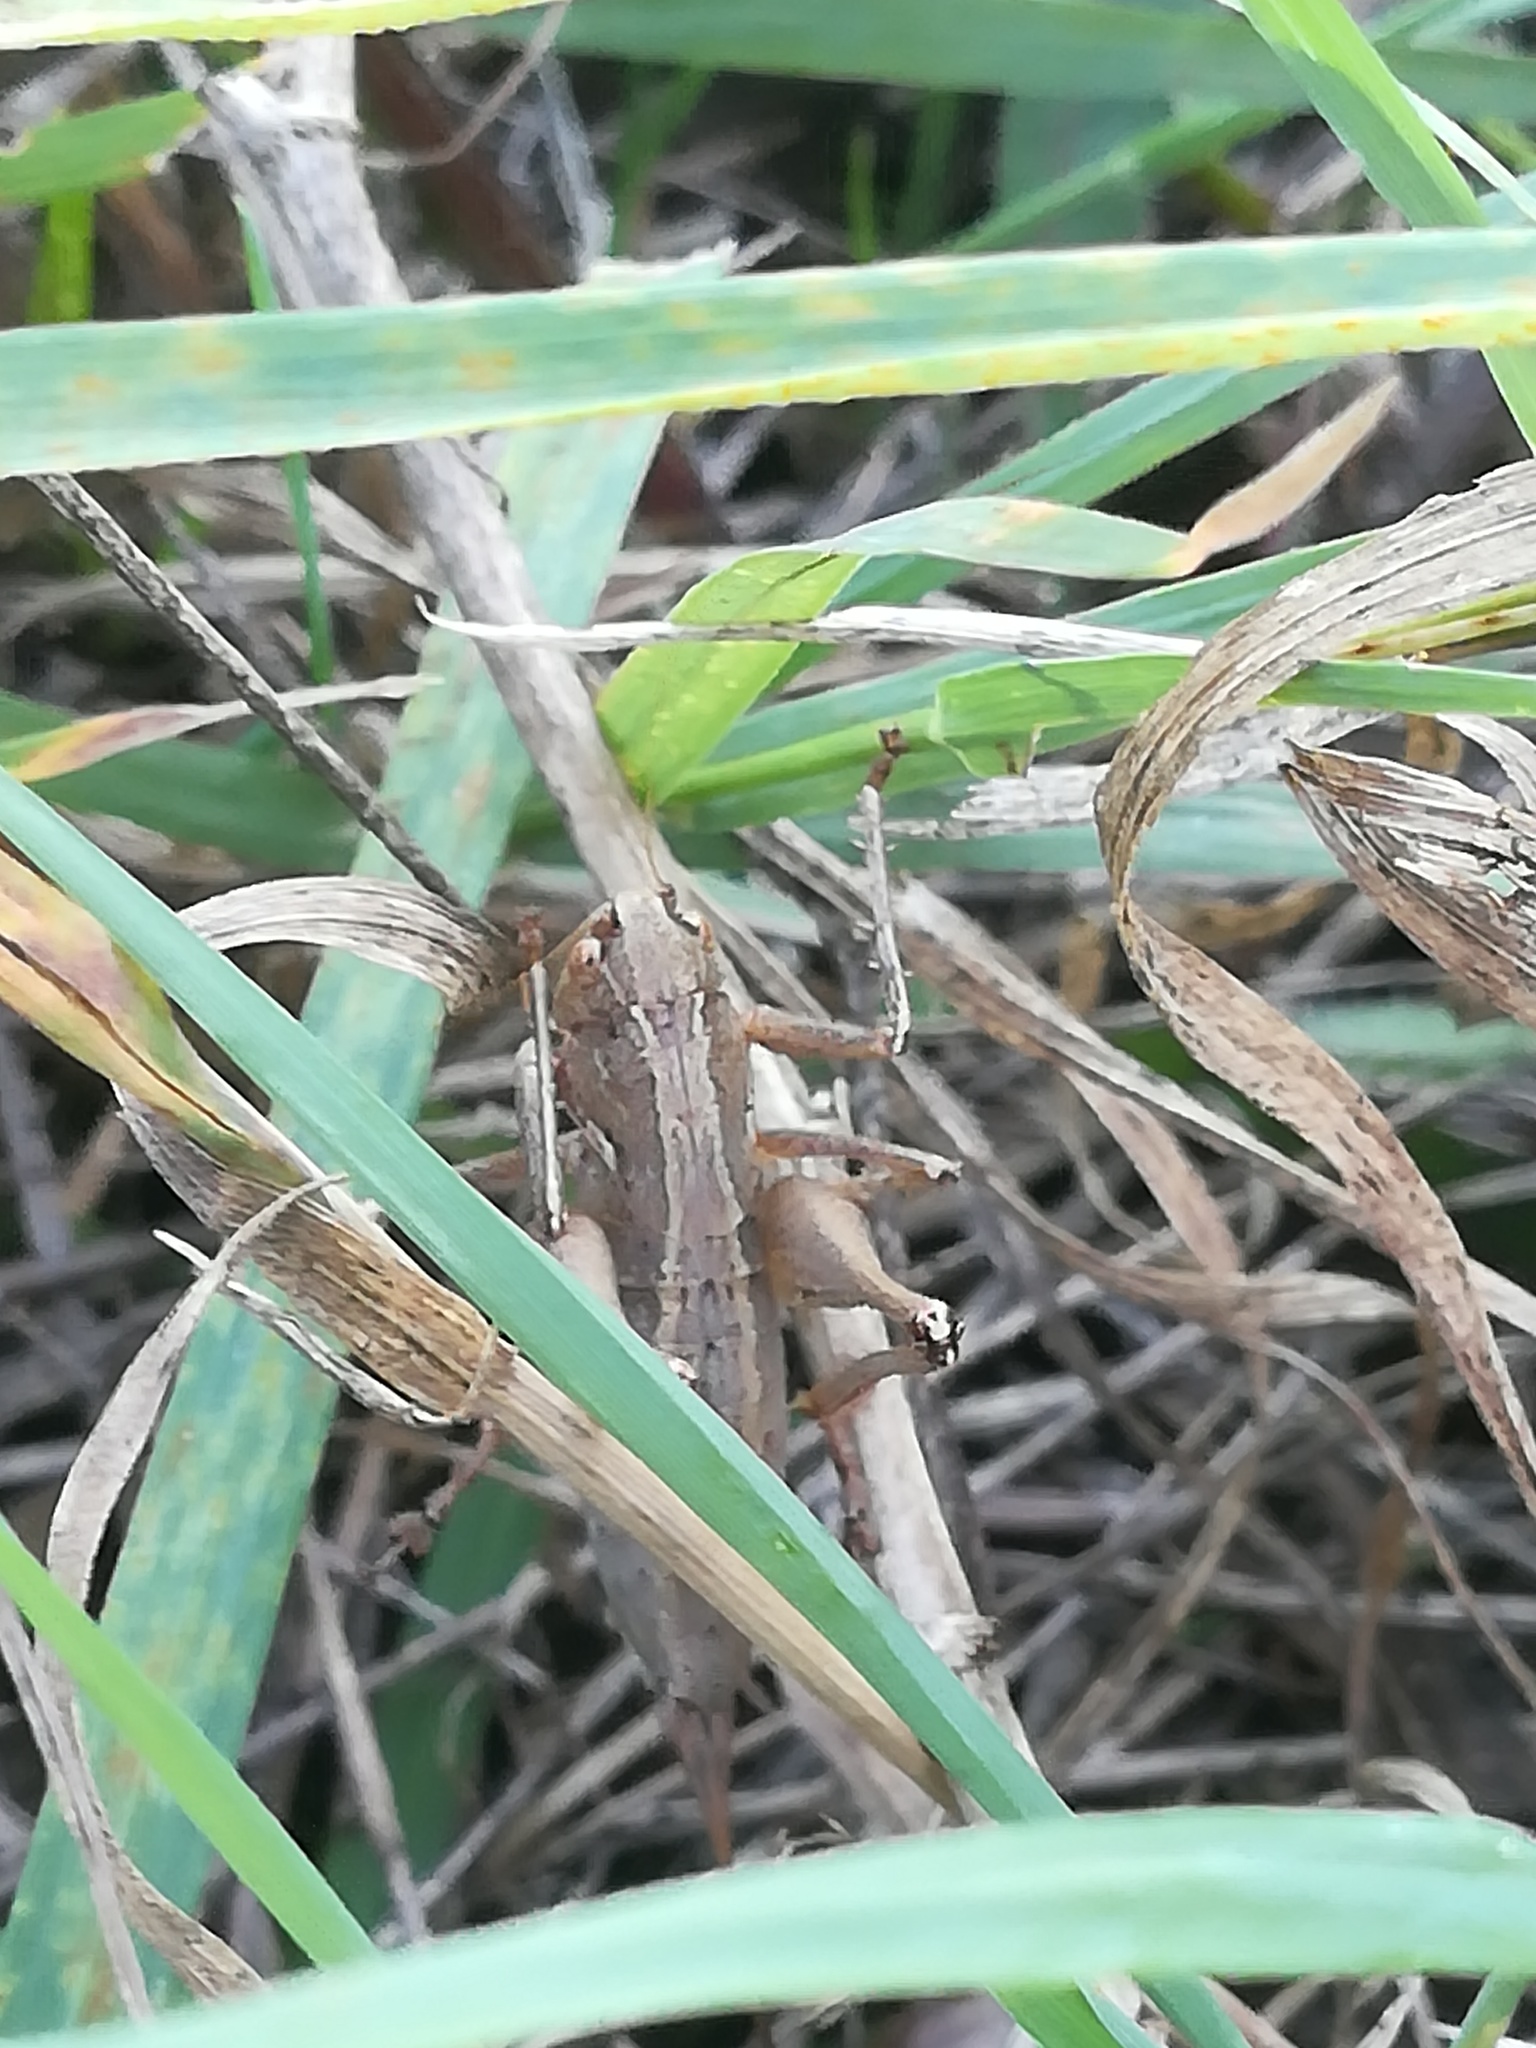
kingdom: Animalia
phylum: Arthropoda
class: Insecta
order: Orthoptera
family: Tettigoniidae
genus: Rhacocleis
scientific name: Rhacocleis germanica
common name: Mediterranean bush-cricket
